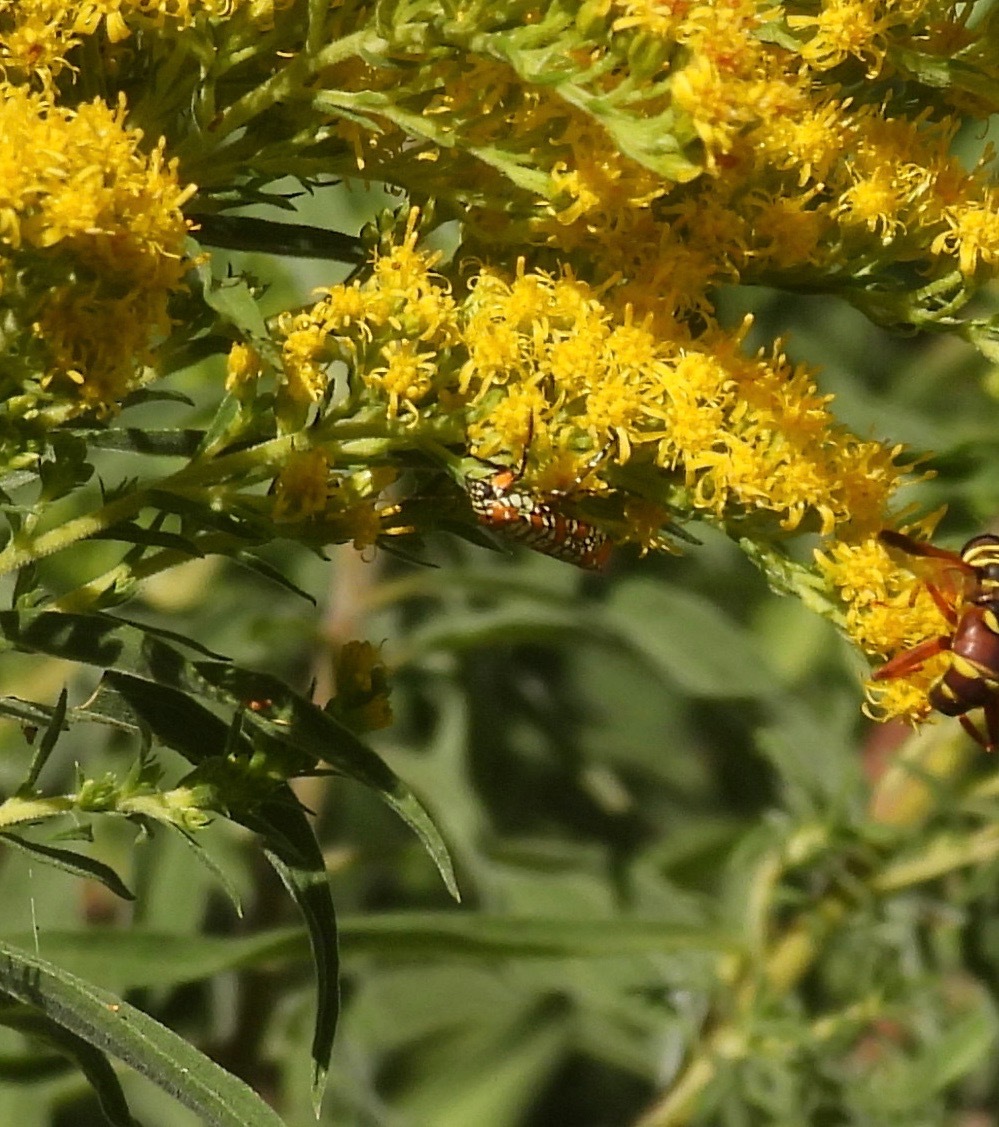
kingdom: Animalia
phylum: Arthropoda
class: Insecta
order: Lepidoptera
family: Attevidae
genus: Atteva
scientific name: Atteva punctella
